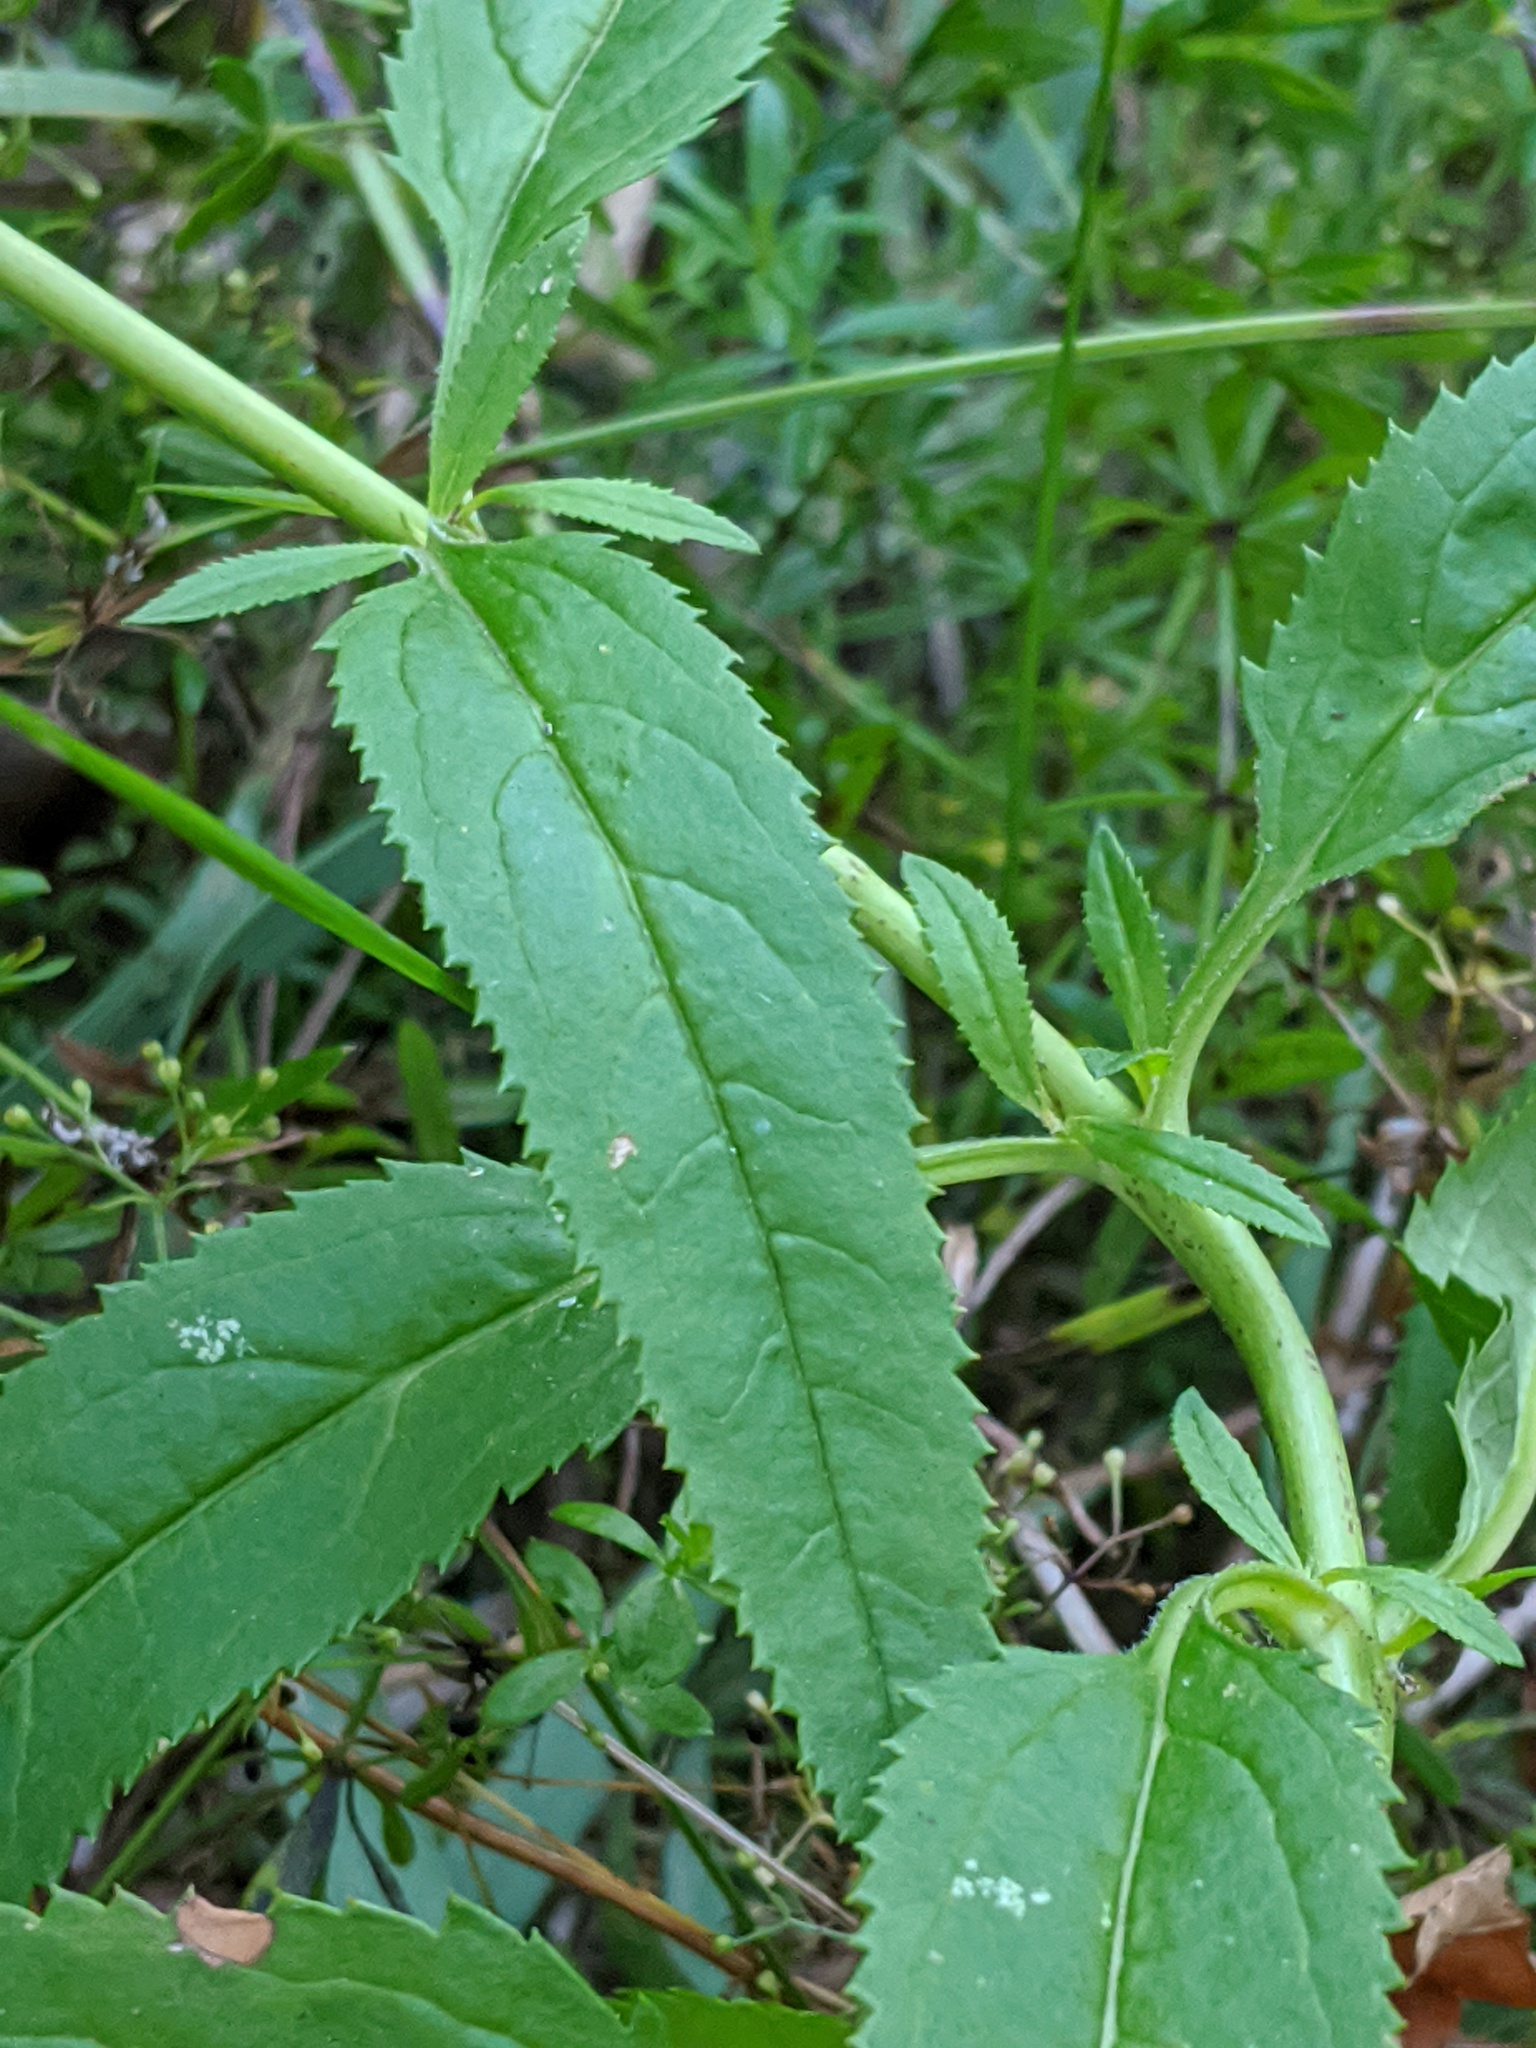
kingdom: Plantae
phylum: Tracheophyta
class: Magnoliopsida
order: Lamiales
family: Plantaginaceae
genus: Veronica
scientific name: Veronica longifolia
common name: Garden speedwell
